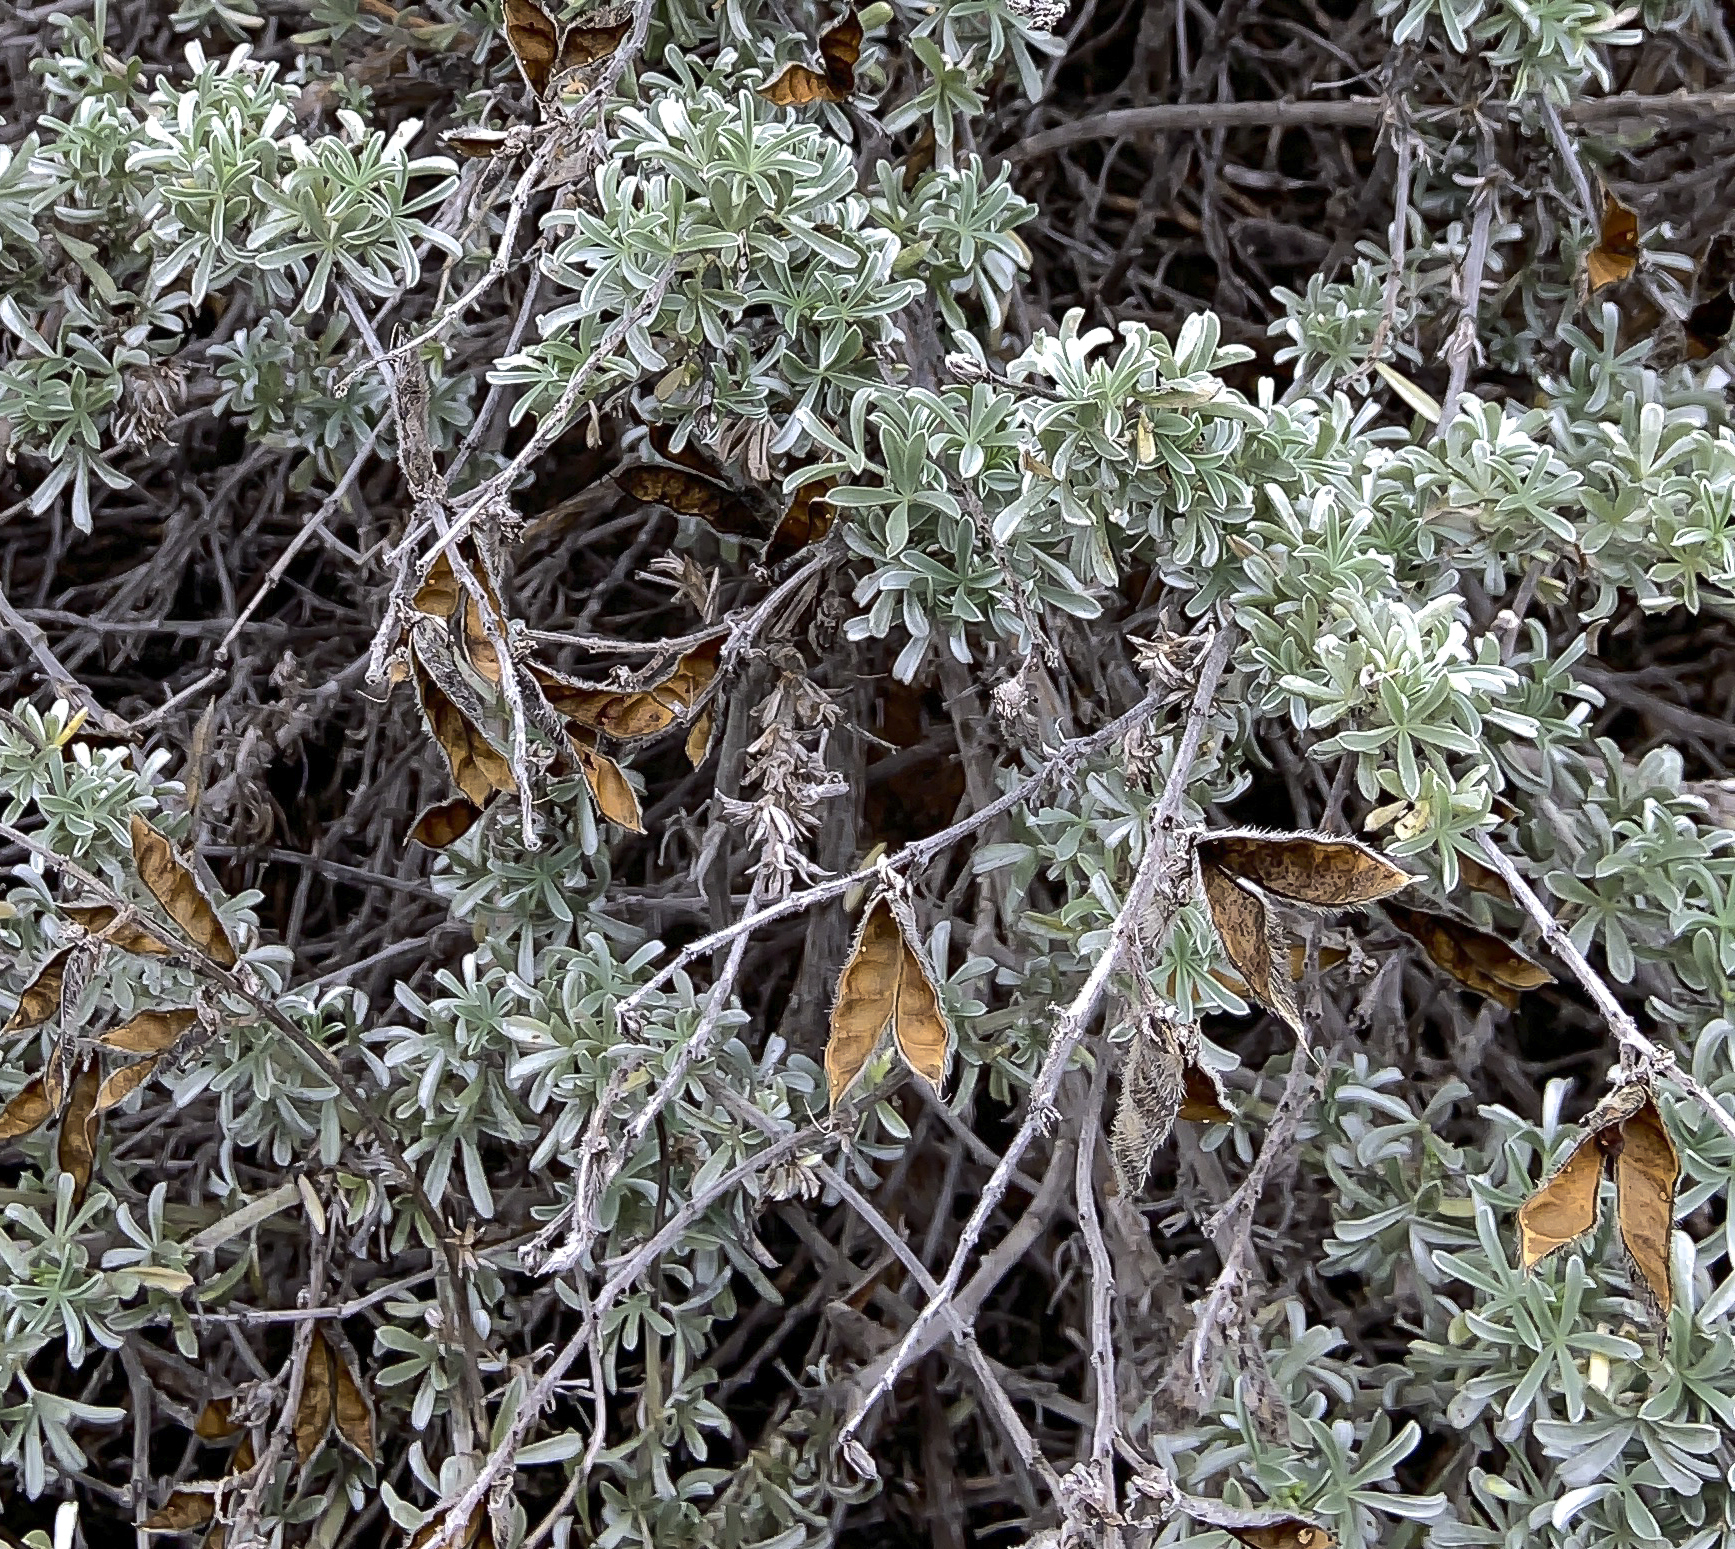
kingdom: Plantae
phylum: Tracheophyta
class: Magnoliopsida
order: Fabales
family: Fabaceae
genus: Lupinus
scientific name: Lupinus chamissonis
